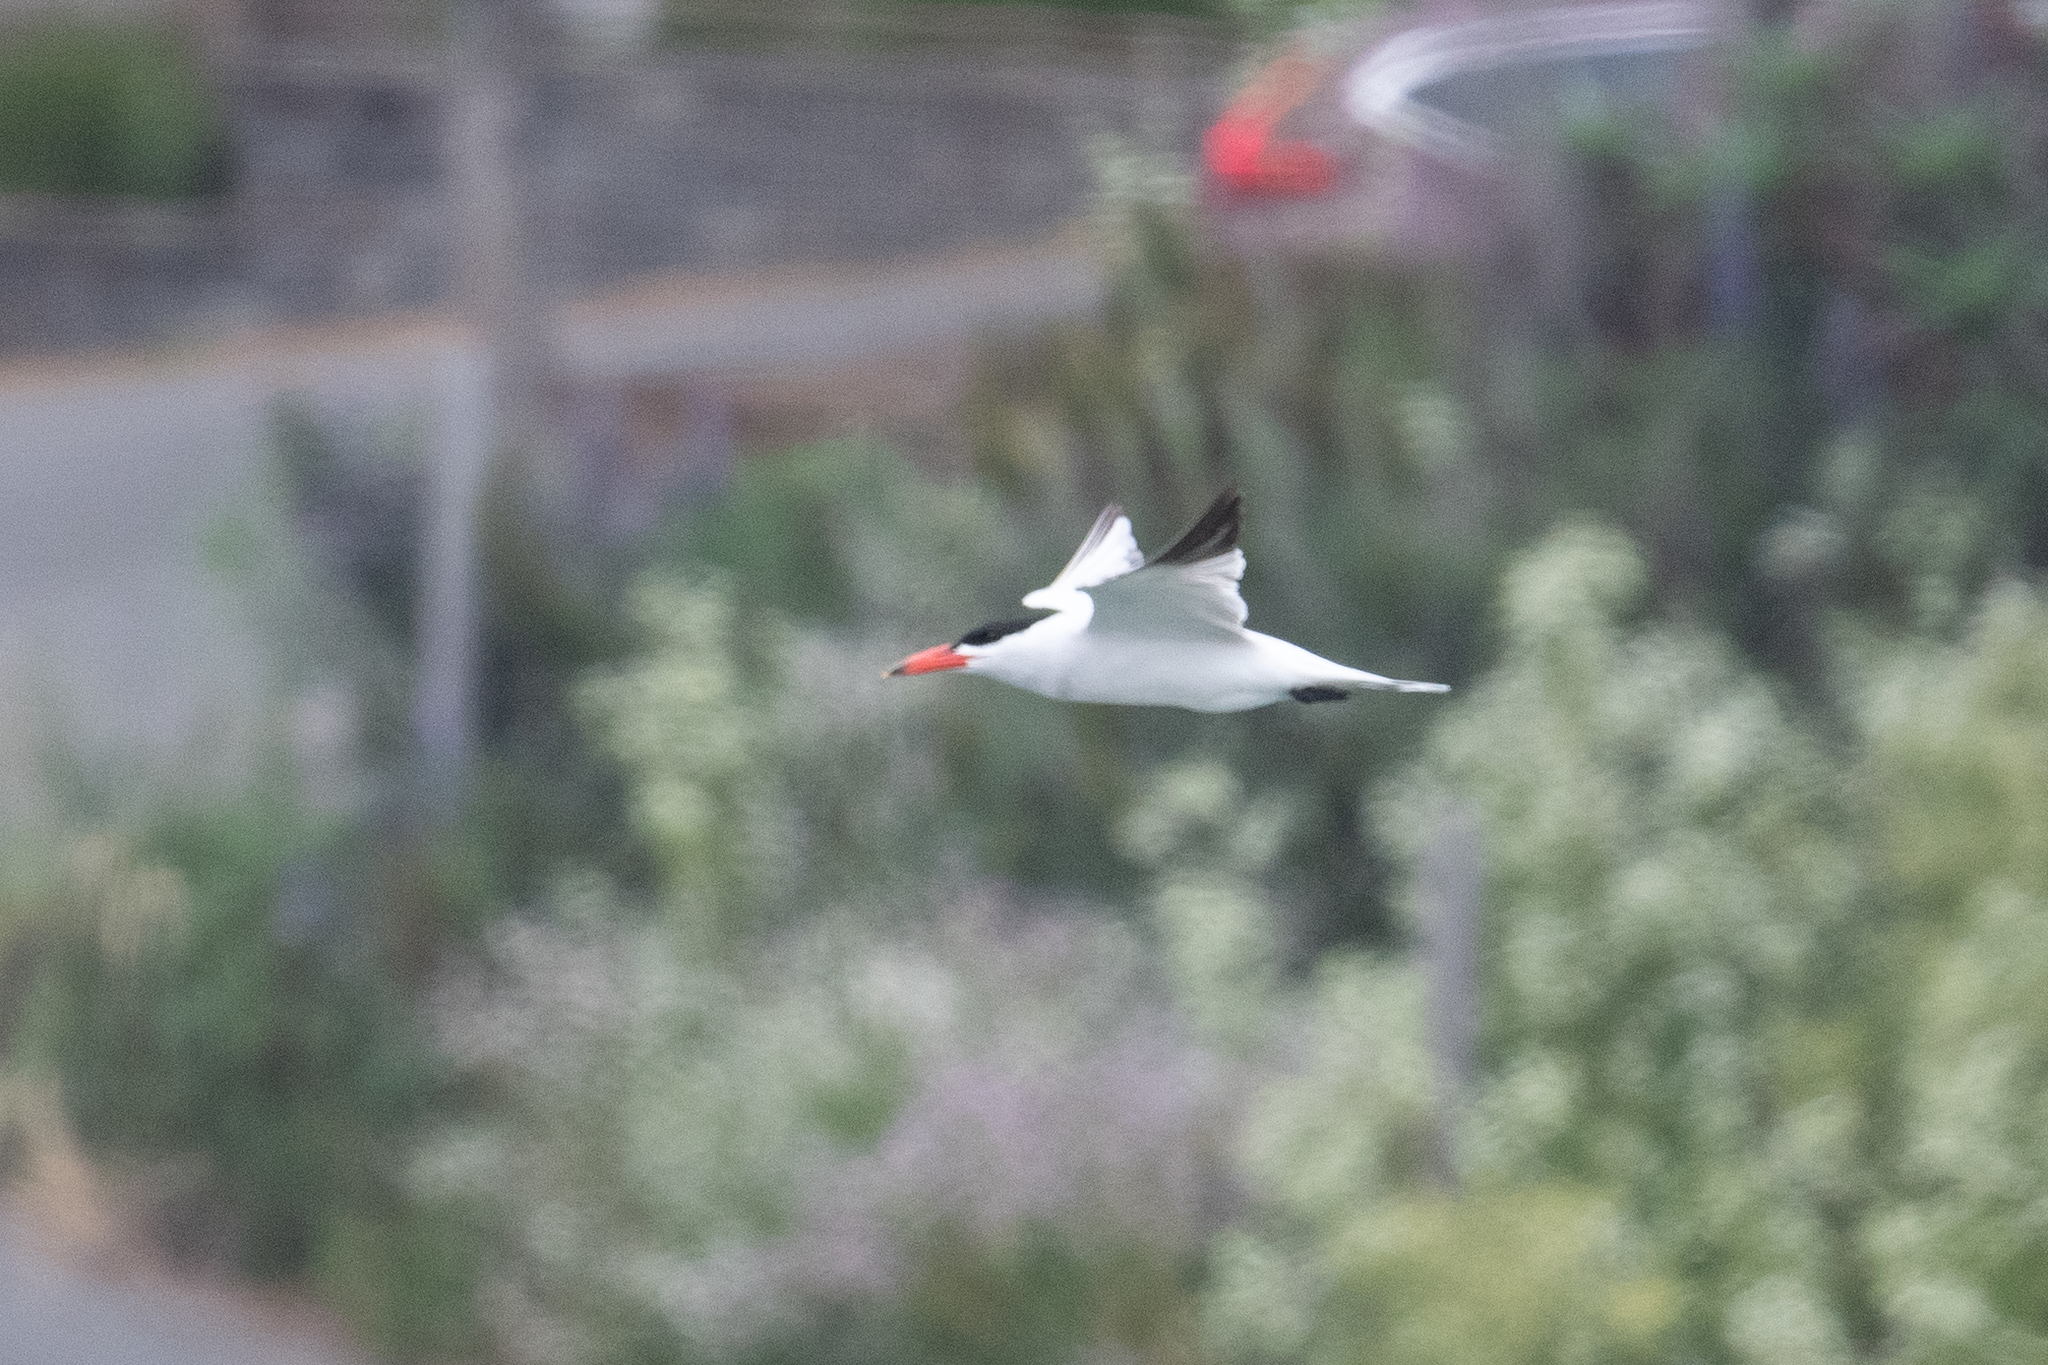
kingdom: Animalia
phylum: Chordata
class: Aves
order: Charadriiformes
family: Laridae
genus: Hydroprogne
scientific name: Hydroprogne caspia
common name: Caspian tern
